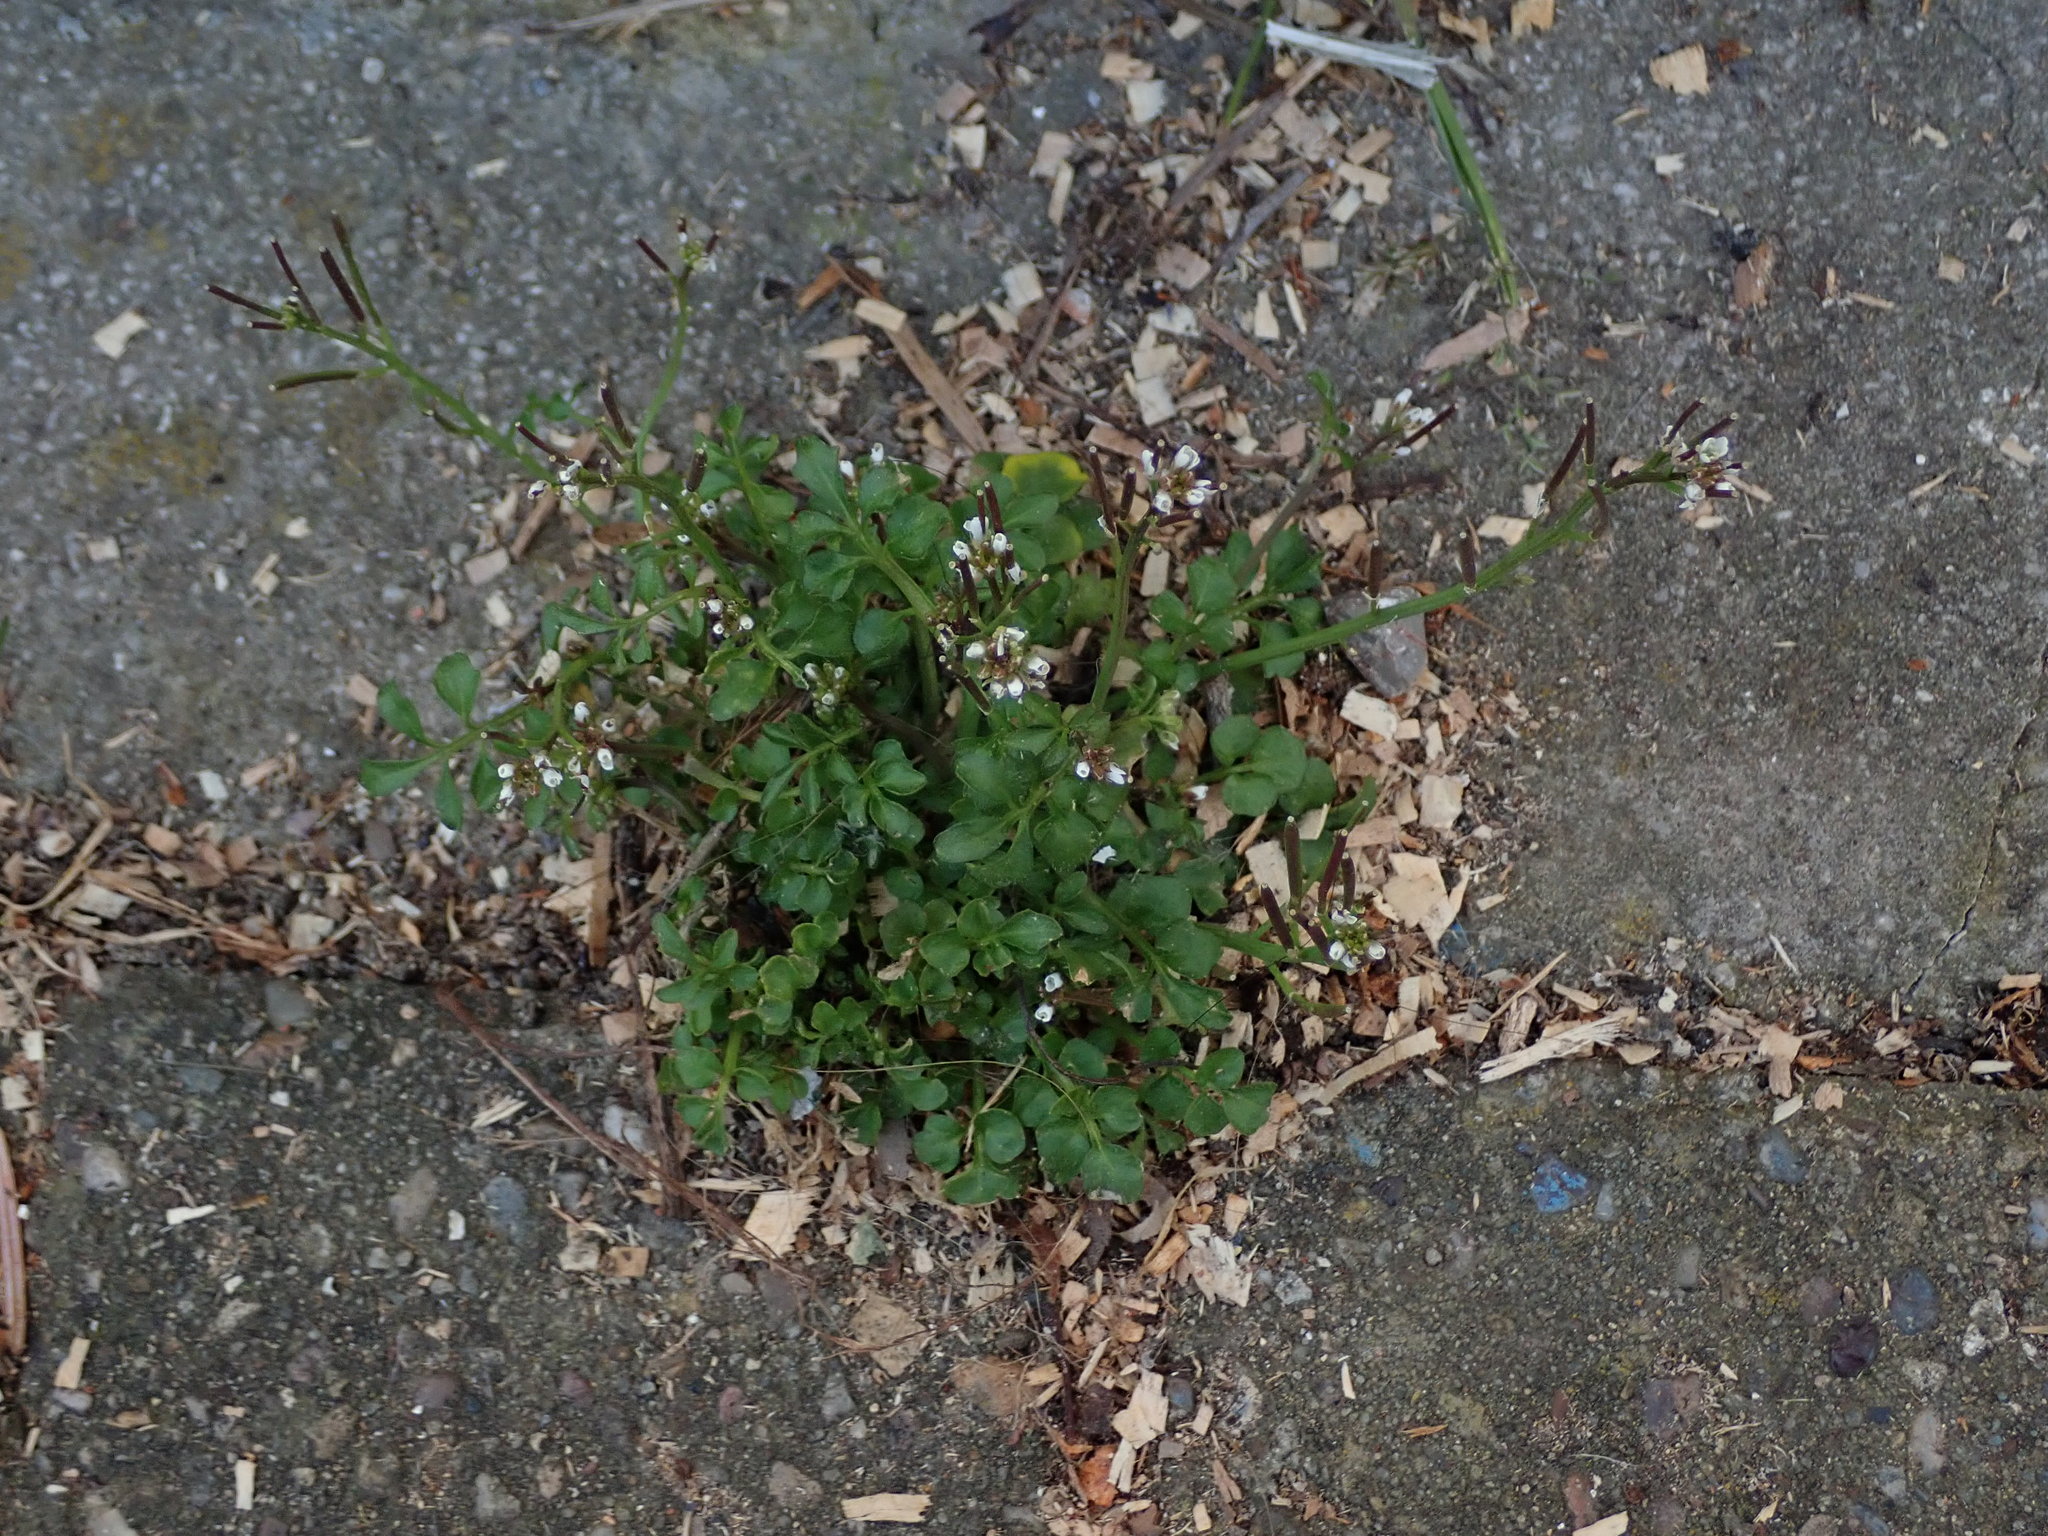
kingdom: Plantae
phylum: Tracheophyta
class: Magnoliopsida
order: Brassicales
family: Brassicaceae
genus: Cardamine
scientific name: Cardamine hirsuta
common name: Hairy bittercress
